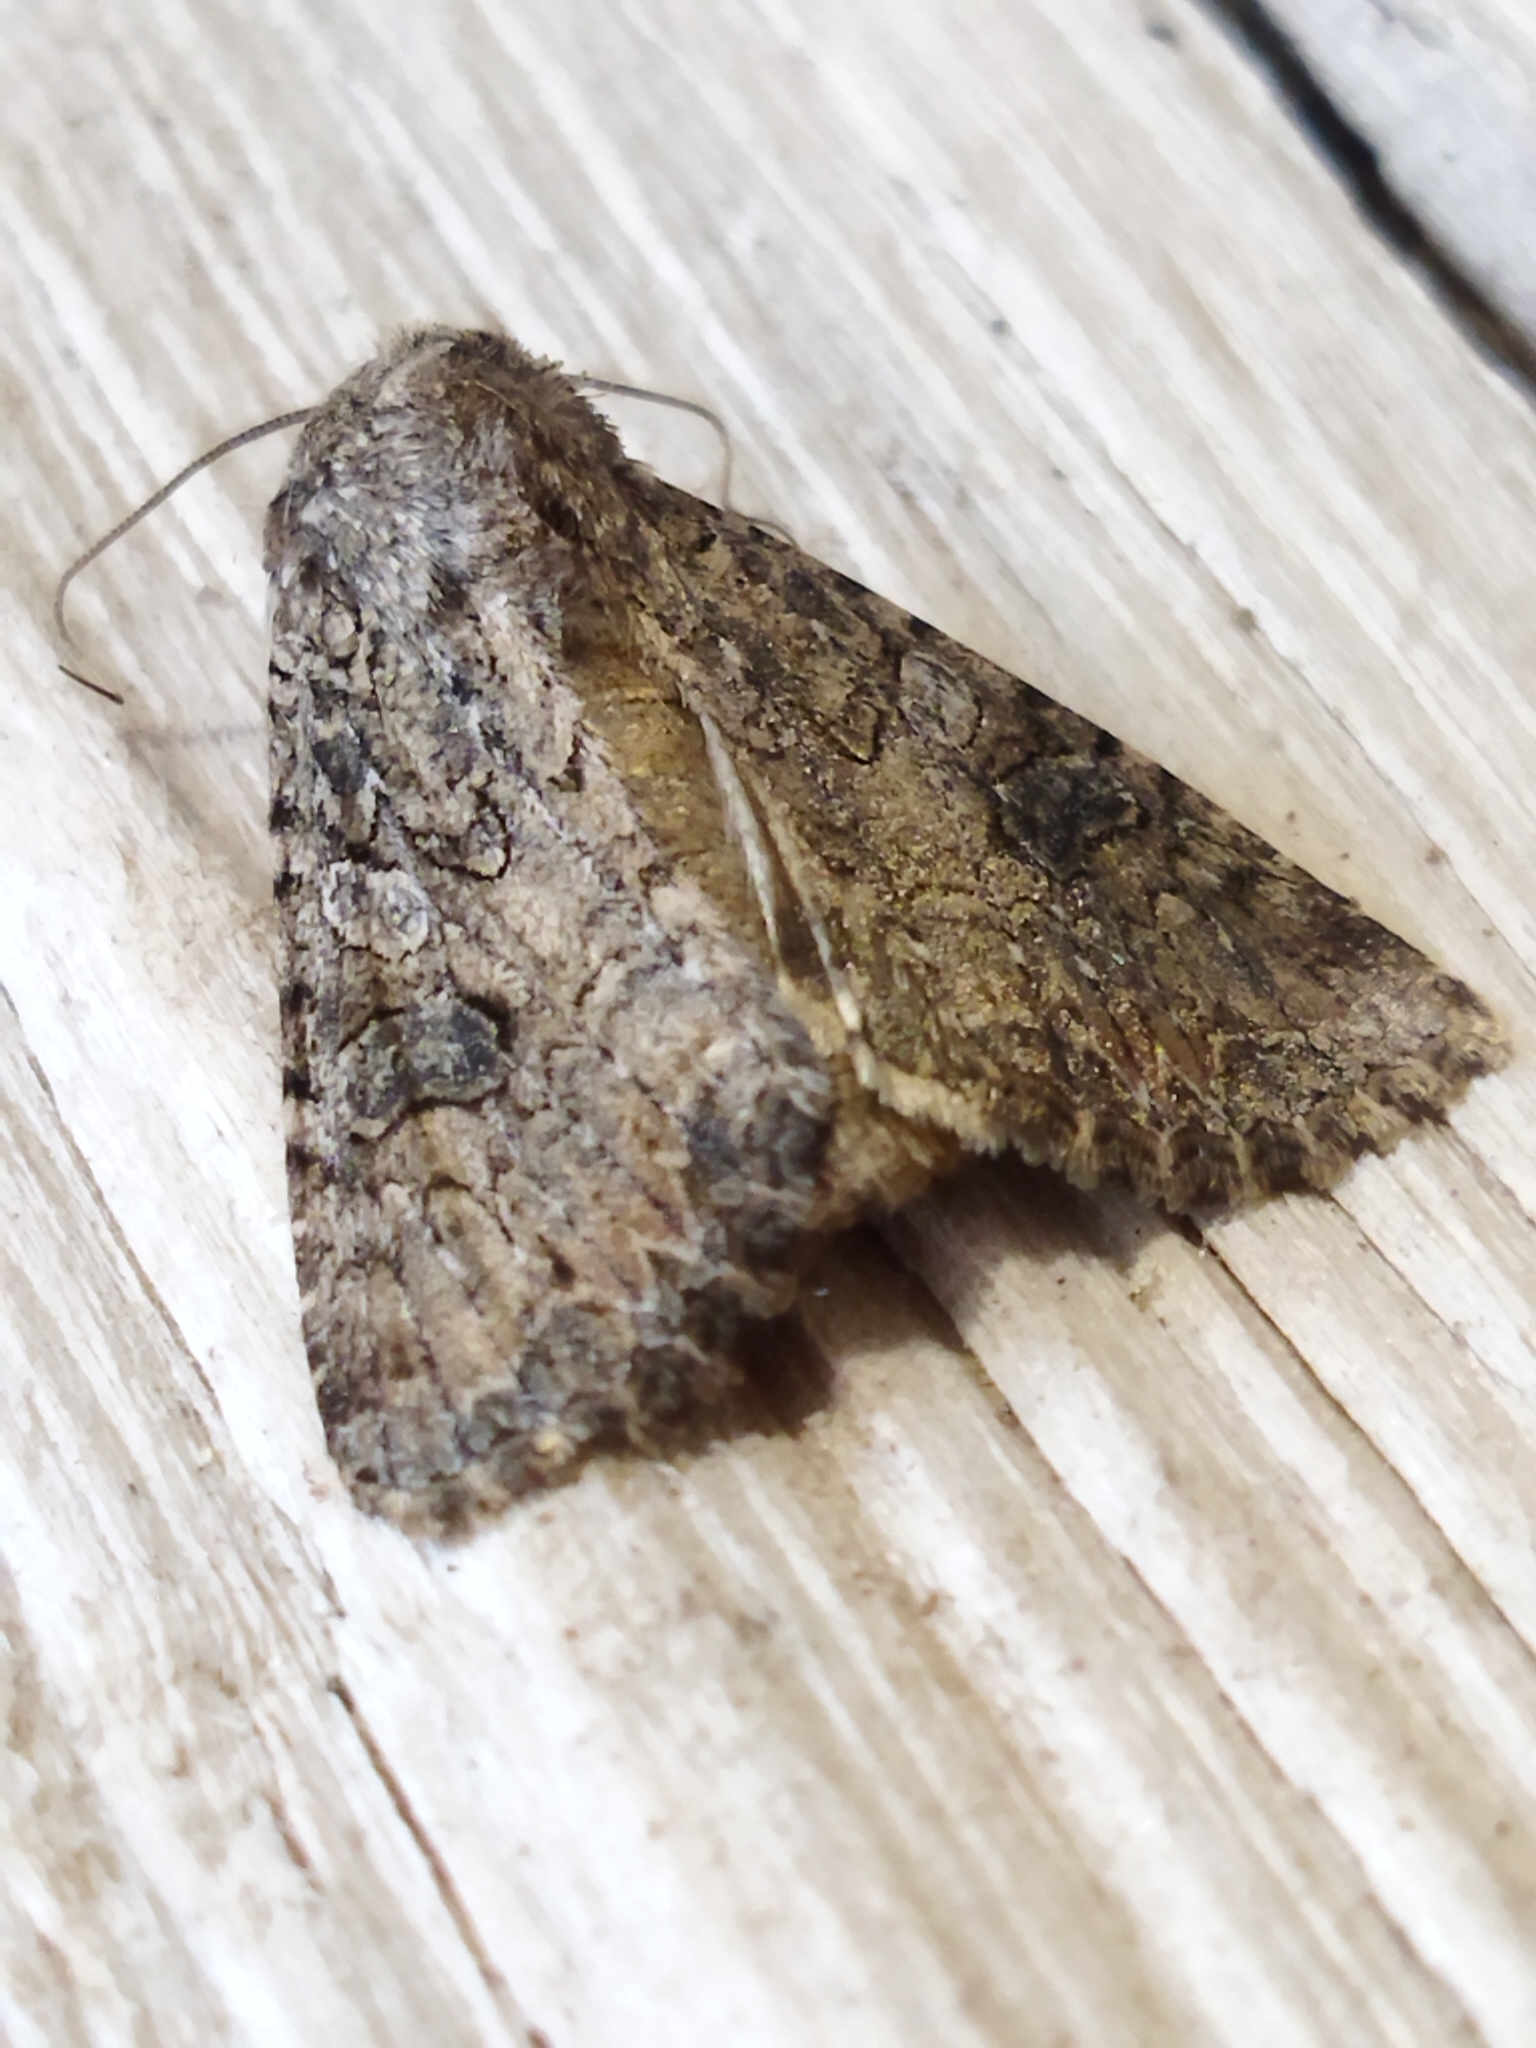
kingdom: Animalia
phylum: Arthropoda
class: Insecta
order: Lepidoptera
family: Noctuidae
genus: Anarta
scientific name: Anarta trifolii
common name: Clover cutworm moth
